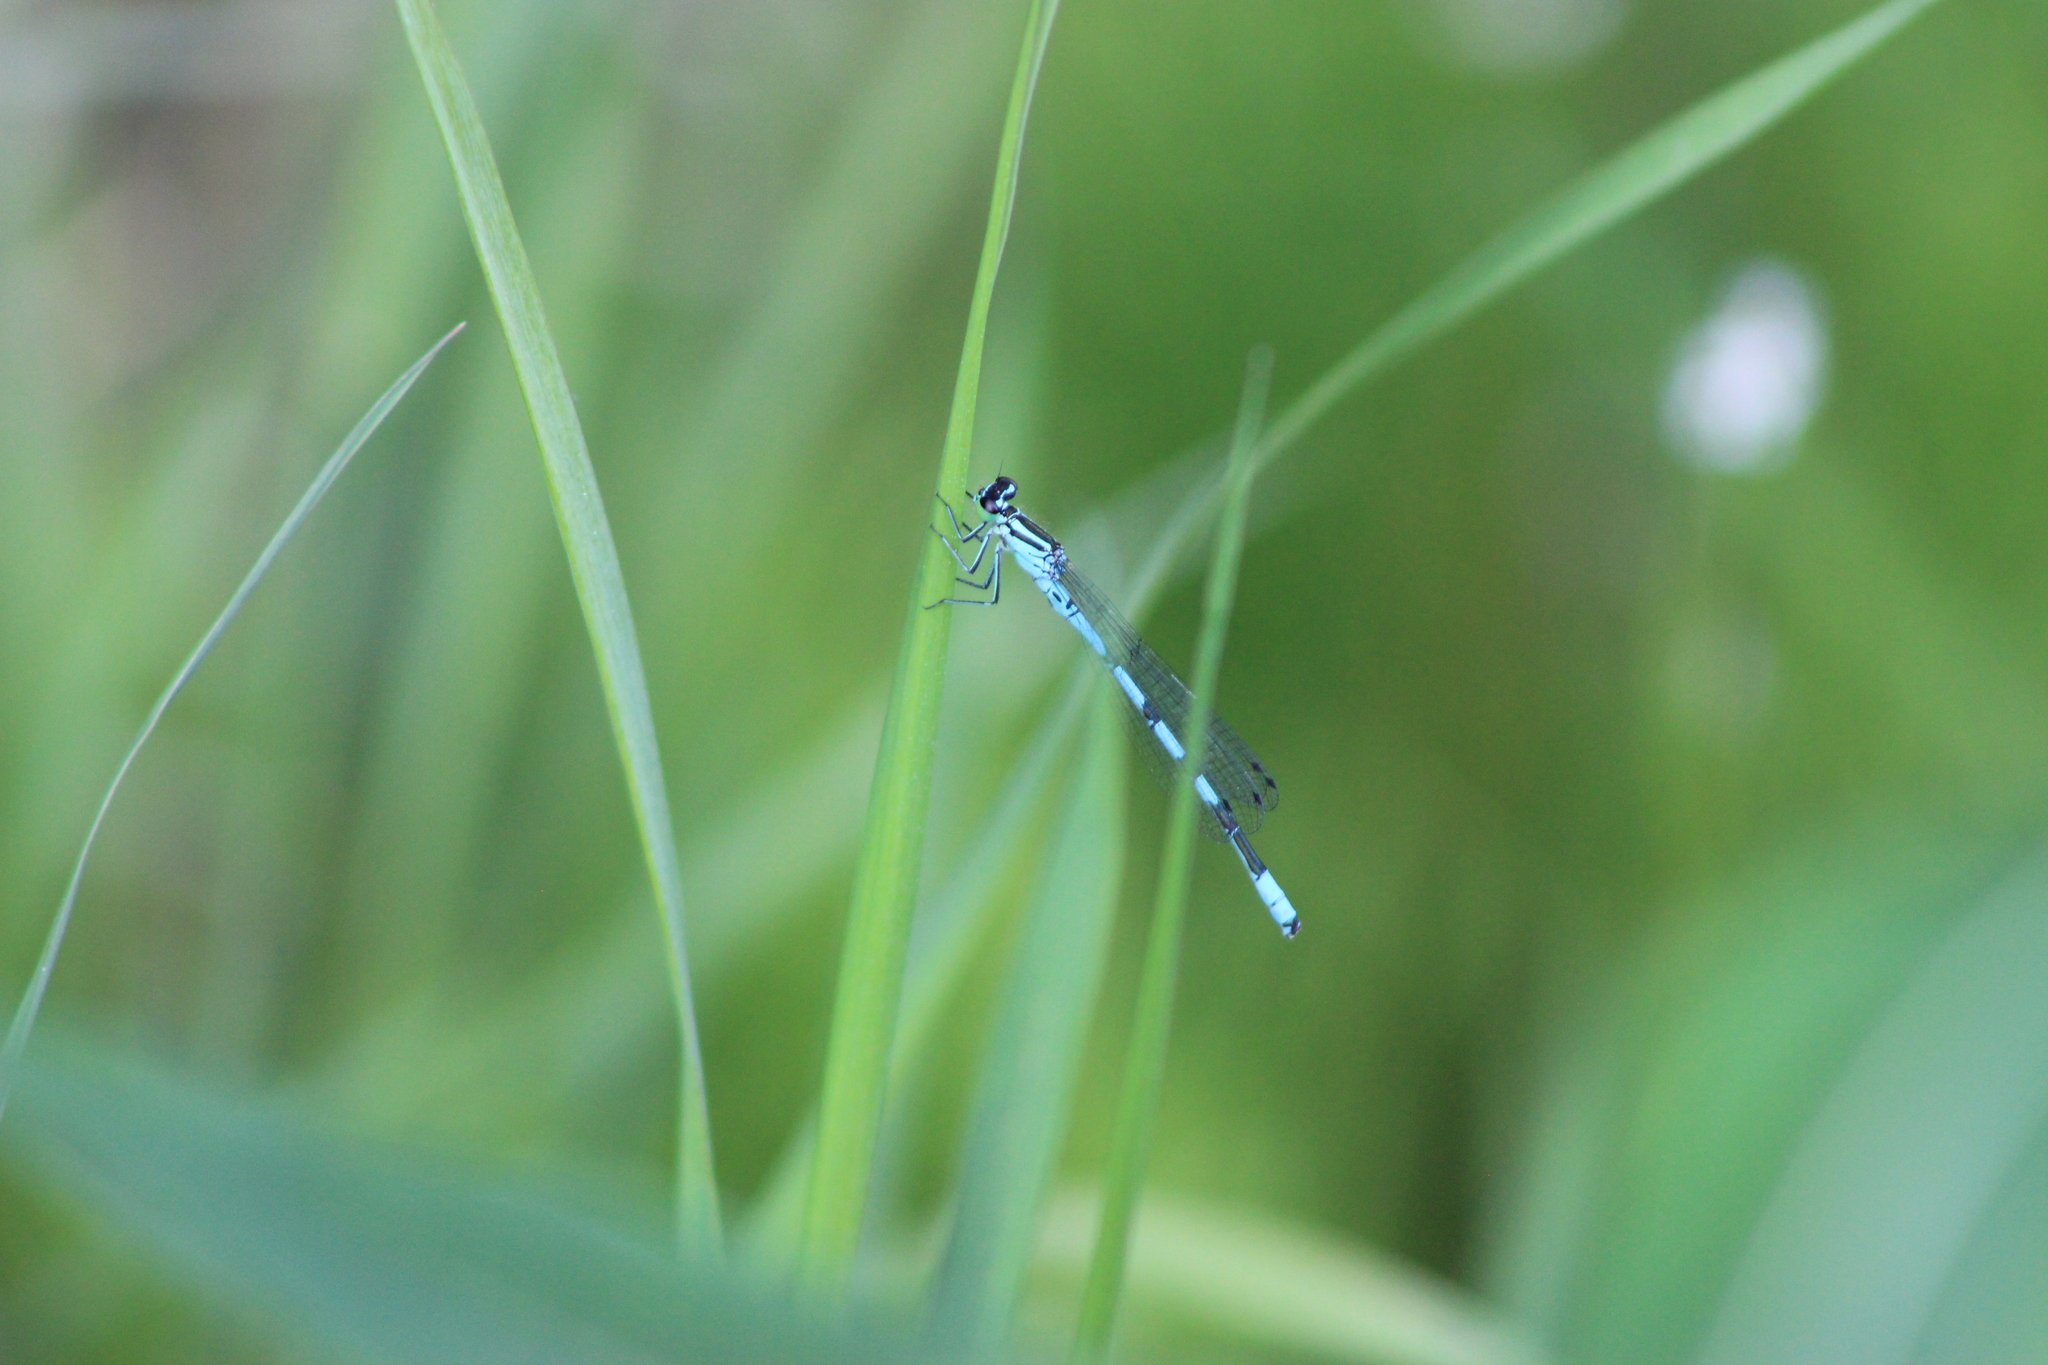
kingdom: Animalia
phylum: Arthropoda
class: Insecta
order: Odonata
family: Coenagrionidae
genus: Coenagrion
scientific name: Coenagrion hastulatum
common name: Spearhead bluet
